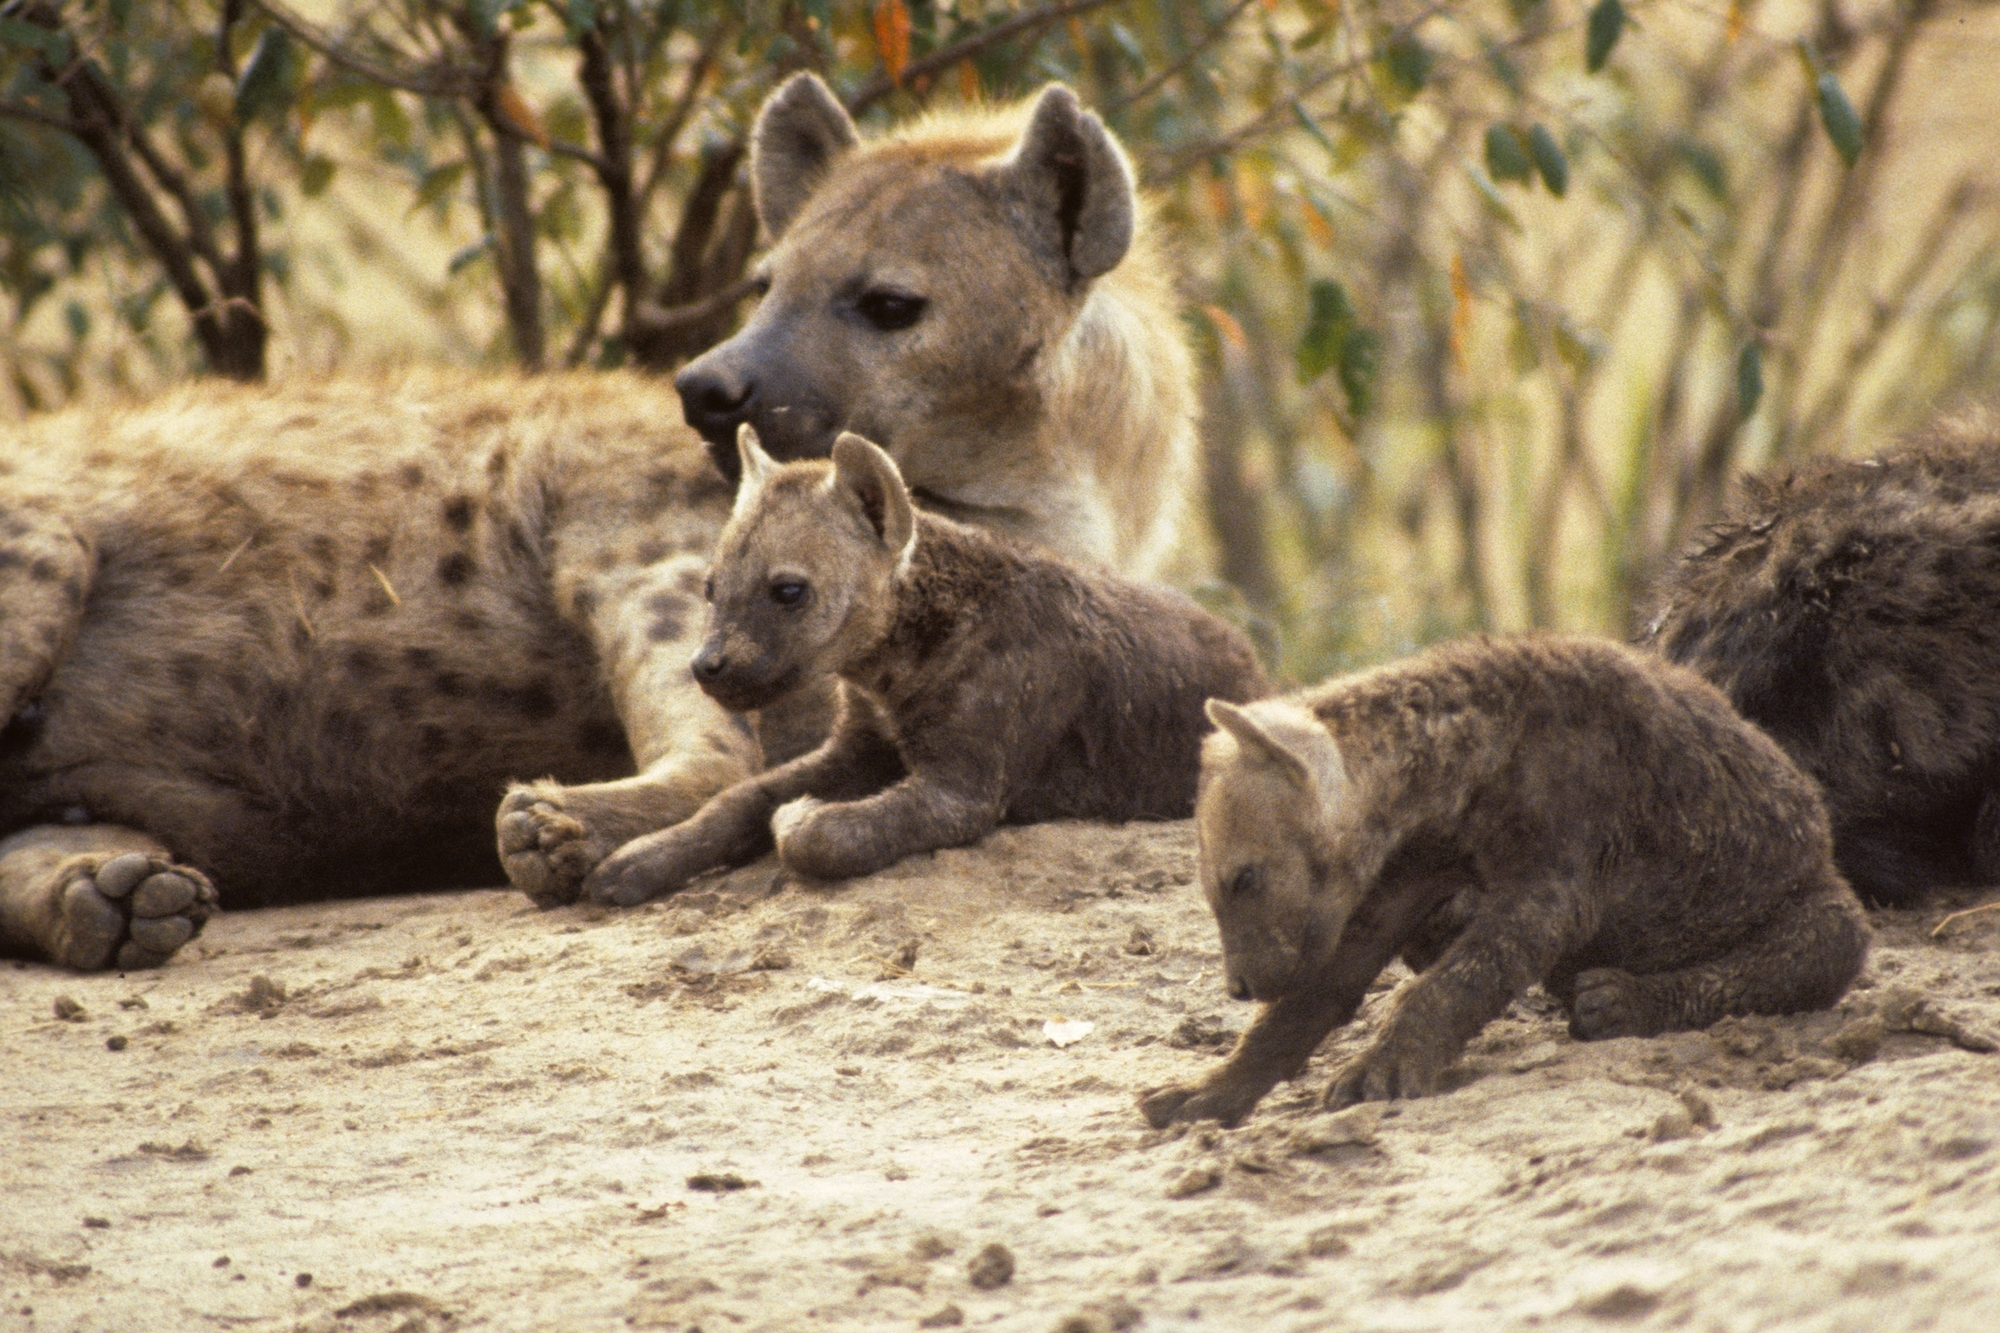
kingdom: Animalia
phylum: Chordata
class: Mammalia
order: Carnivora
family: Hyaenidae
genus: Crocuta
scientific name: Crocuta crocuta
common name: Spotted hyaena
